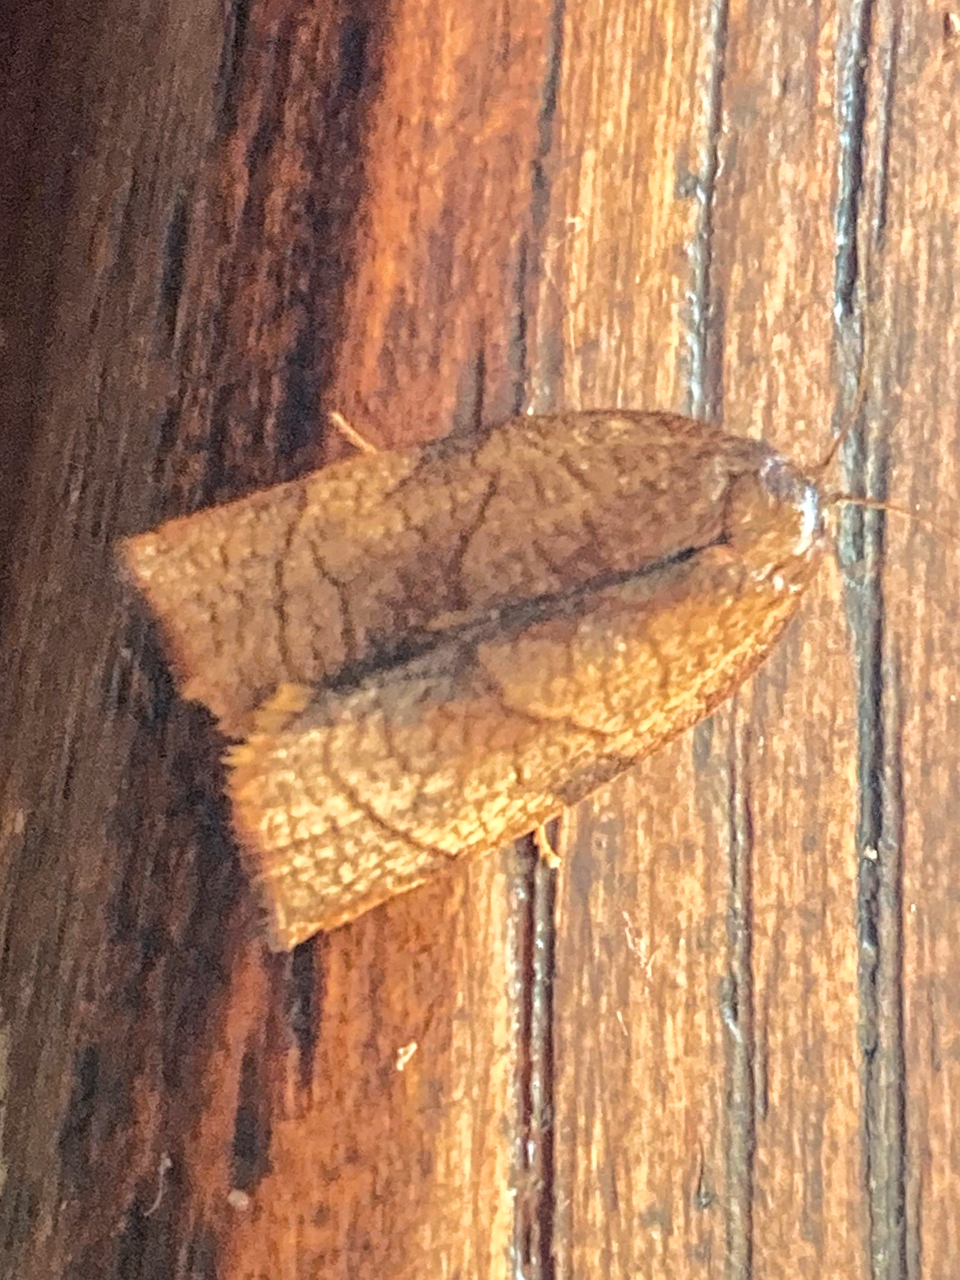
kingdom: Animalia
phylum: Arthropoda
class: Insecta
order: Lepidoptera
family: Tortricidae
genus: Cacoecimorpha
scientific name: Cacoecimorpha pronubana
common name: Carnation tortrix
